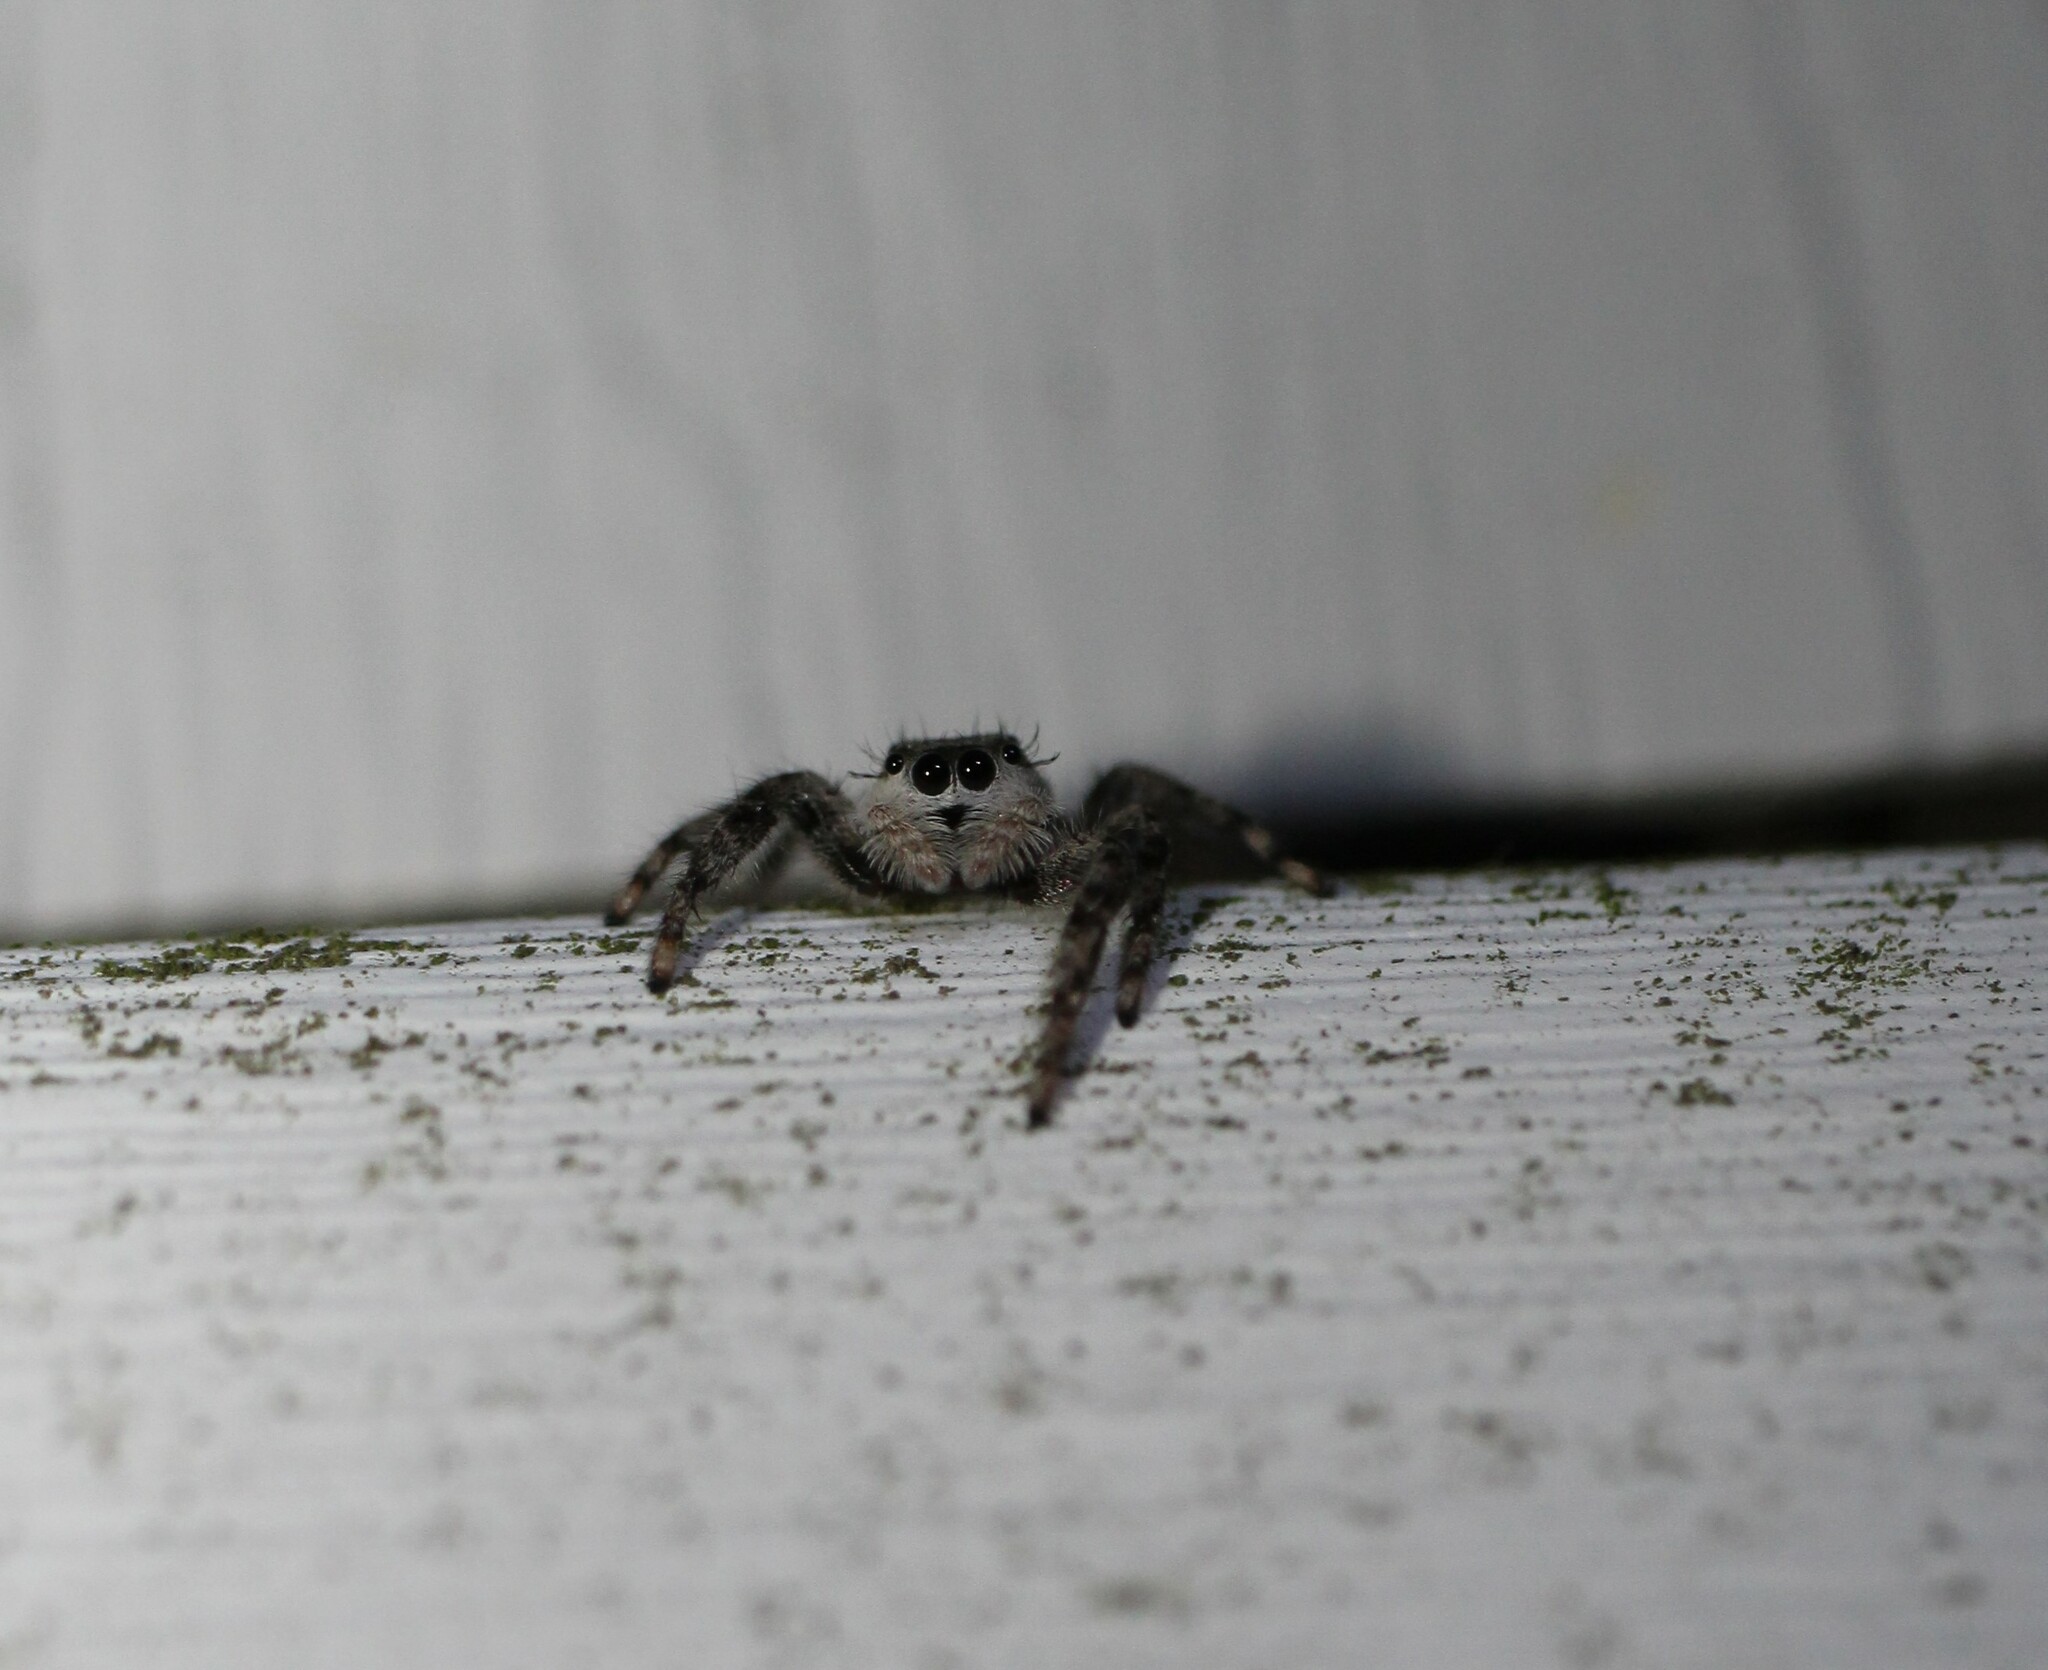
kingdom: Animalia
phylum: Arthropoda
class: Arachnida
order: Araneae
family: Salticidae
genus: Platycryptus
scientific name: Platycryptus undatus
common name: Tan jumping spider
